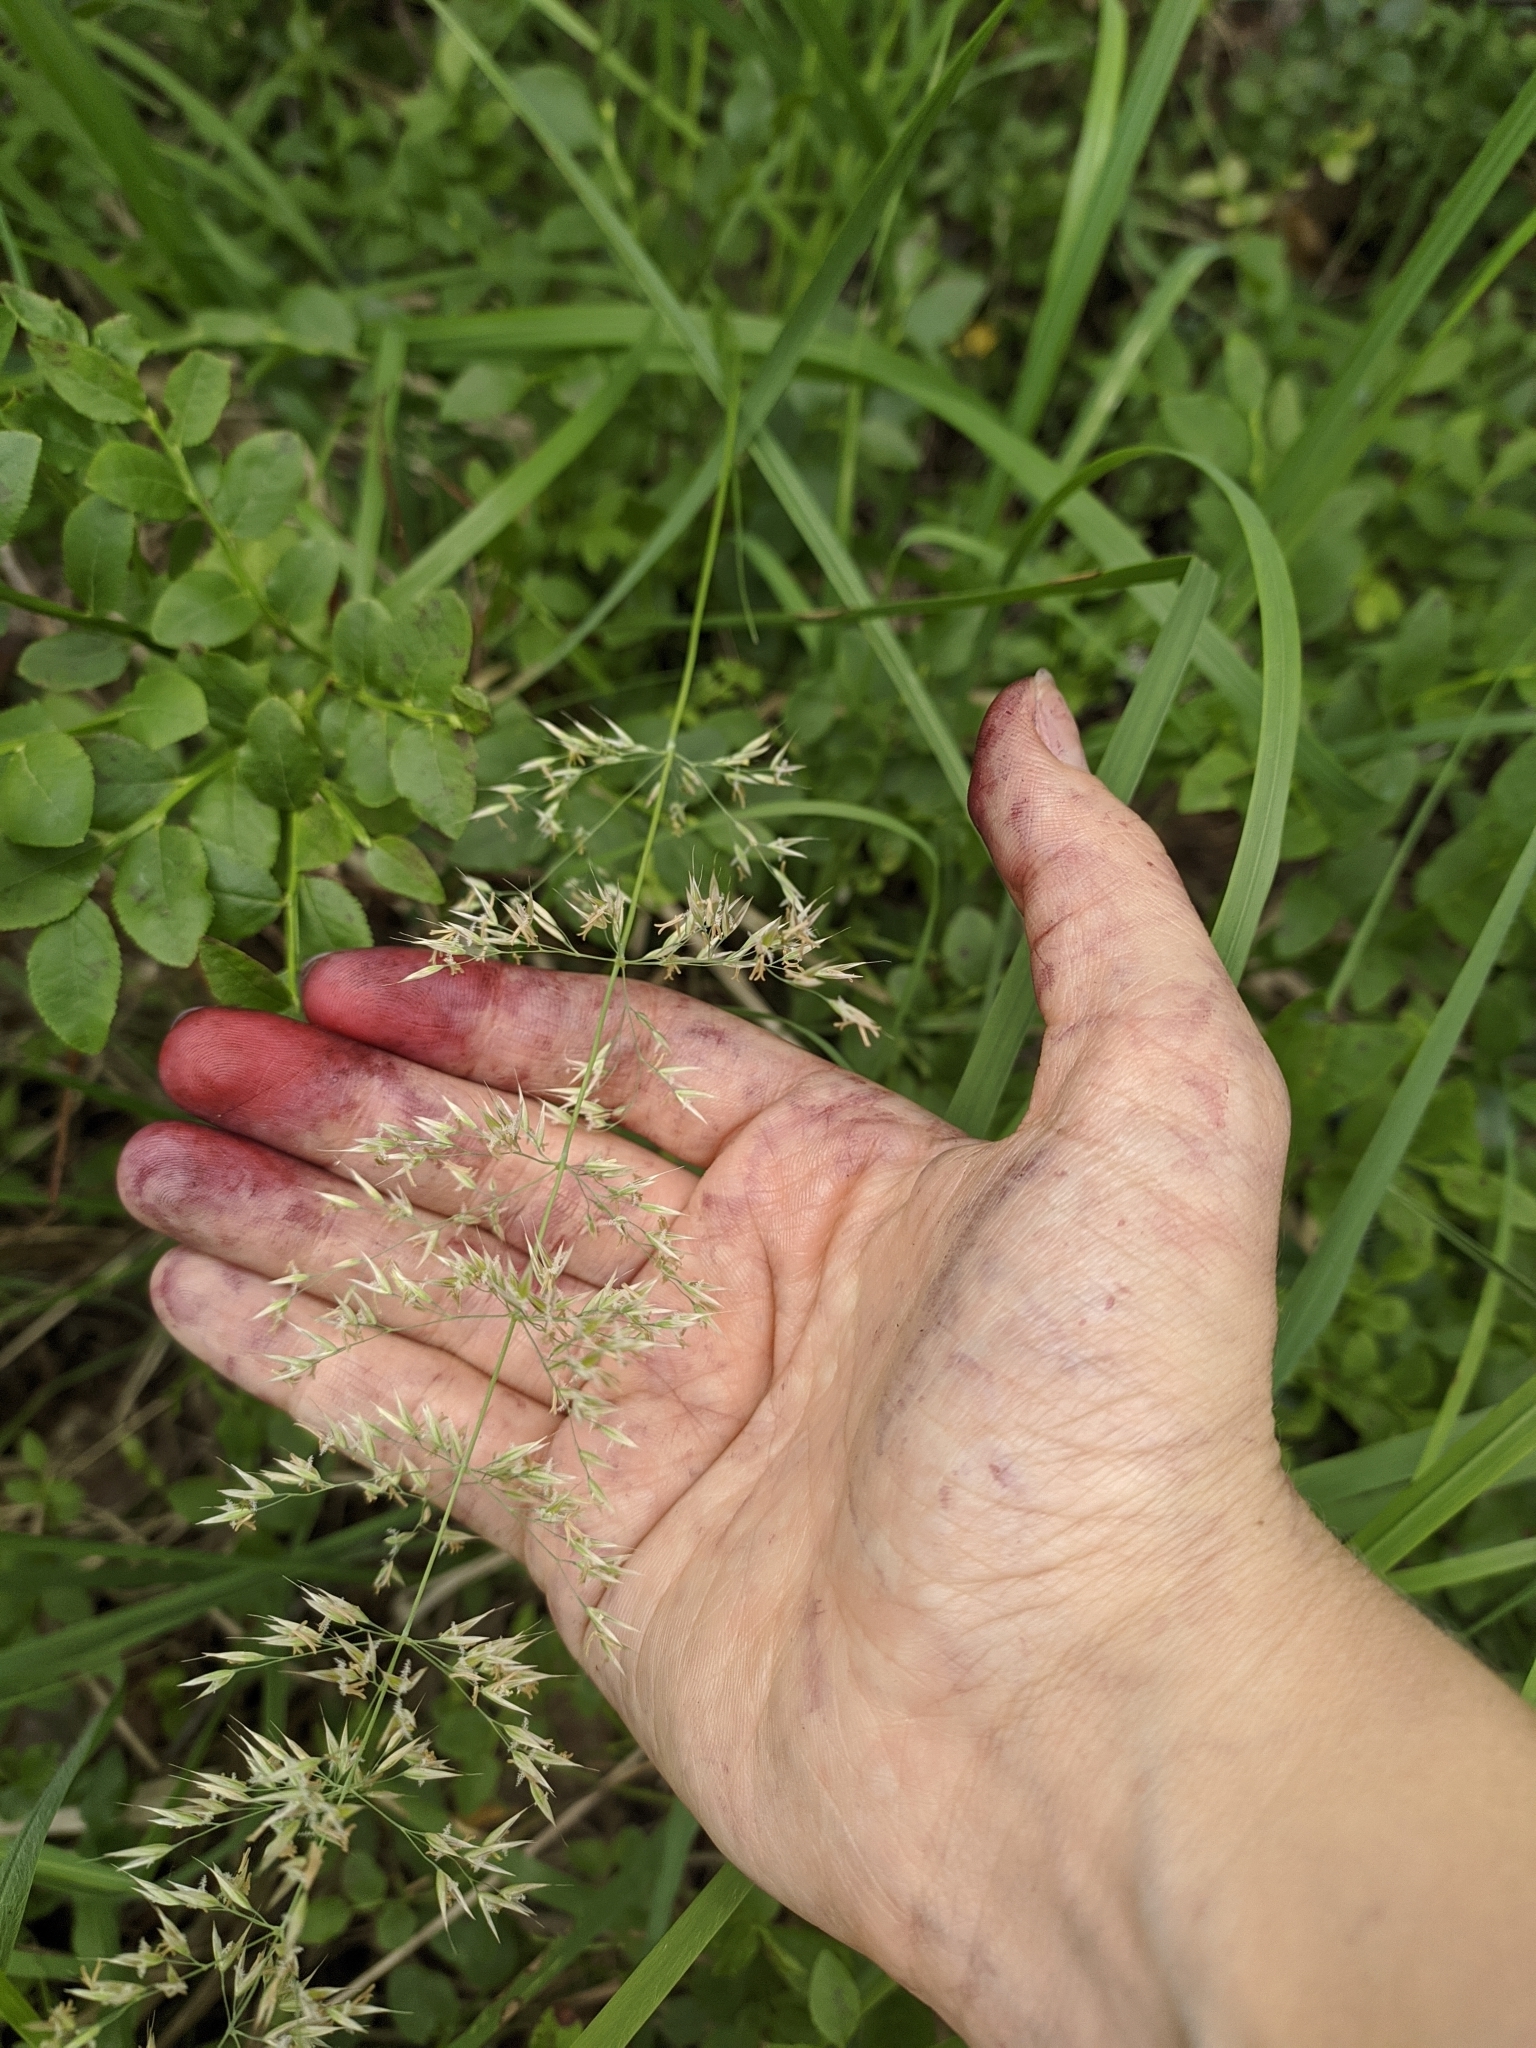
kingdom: Plantae
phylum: Tracheophyta
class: Liliopsida
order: Poales
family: Poaceae
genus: Calamagrostis
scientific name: Calamagrostis arundinacea
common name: Metskastik
